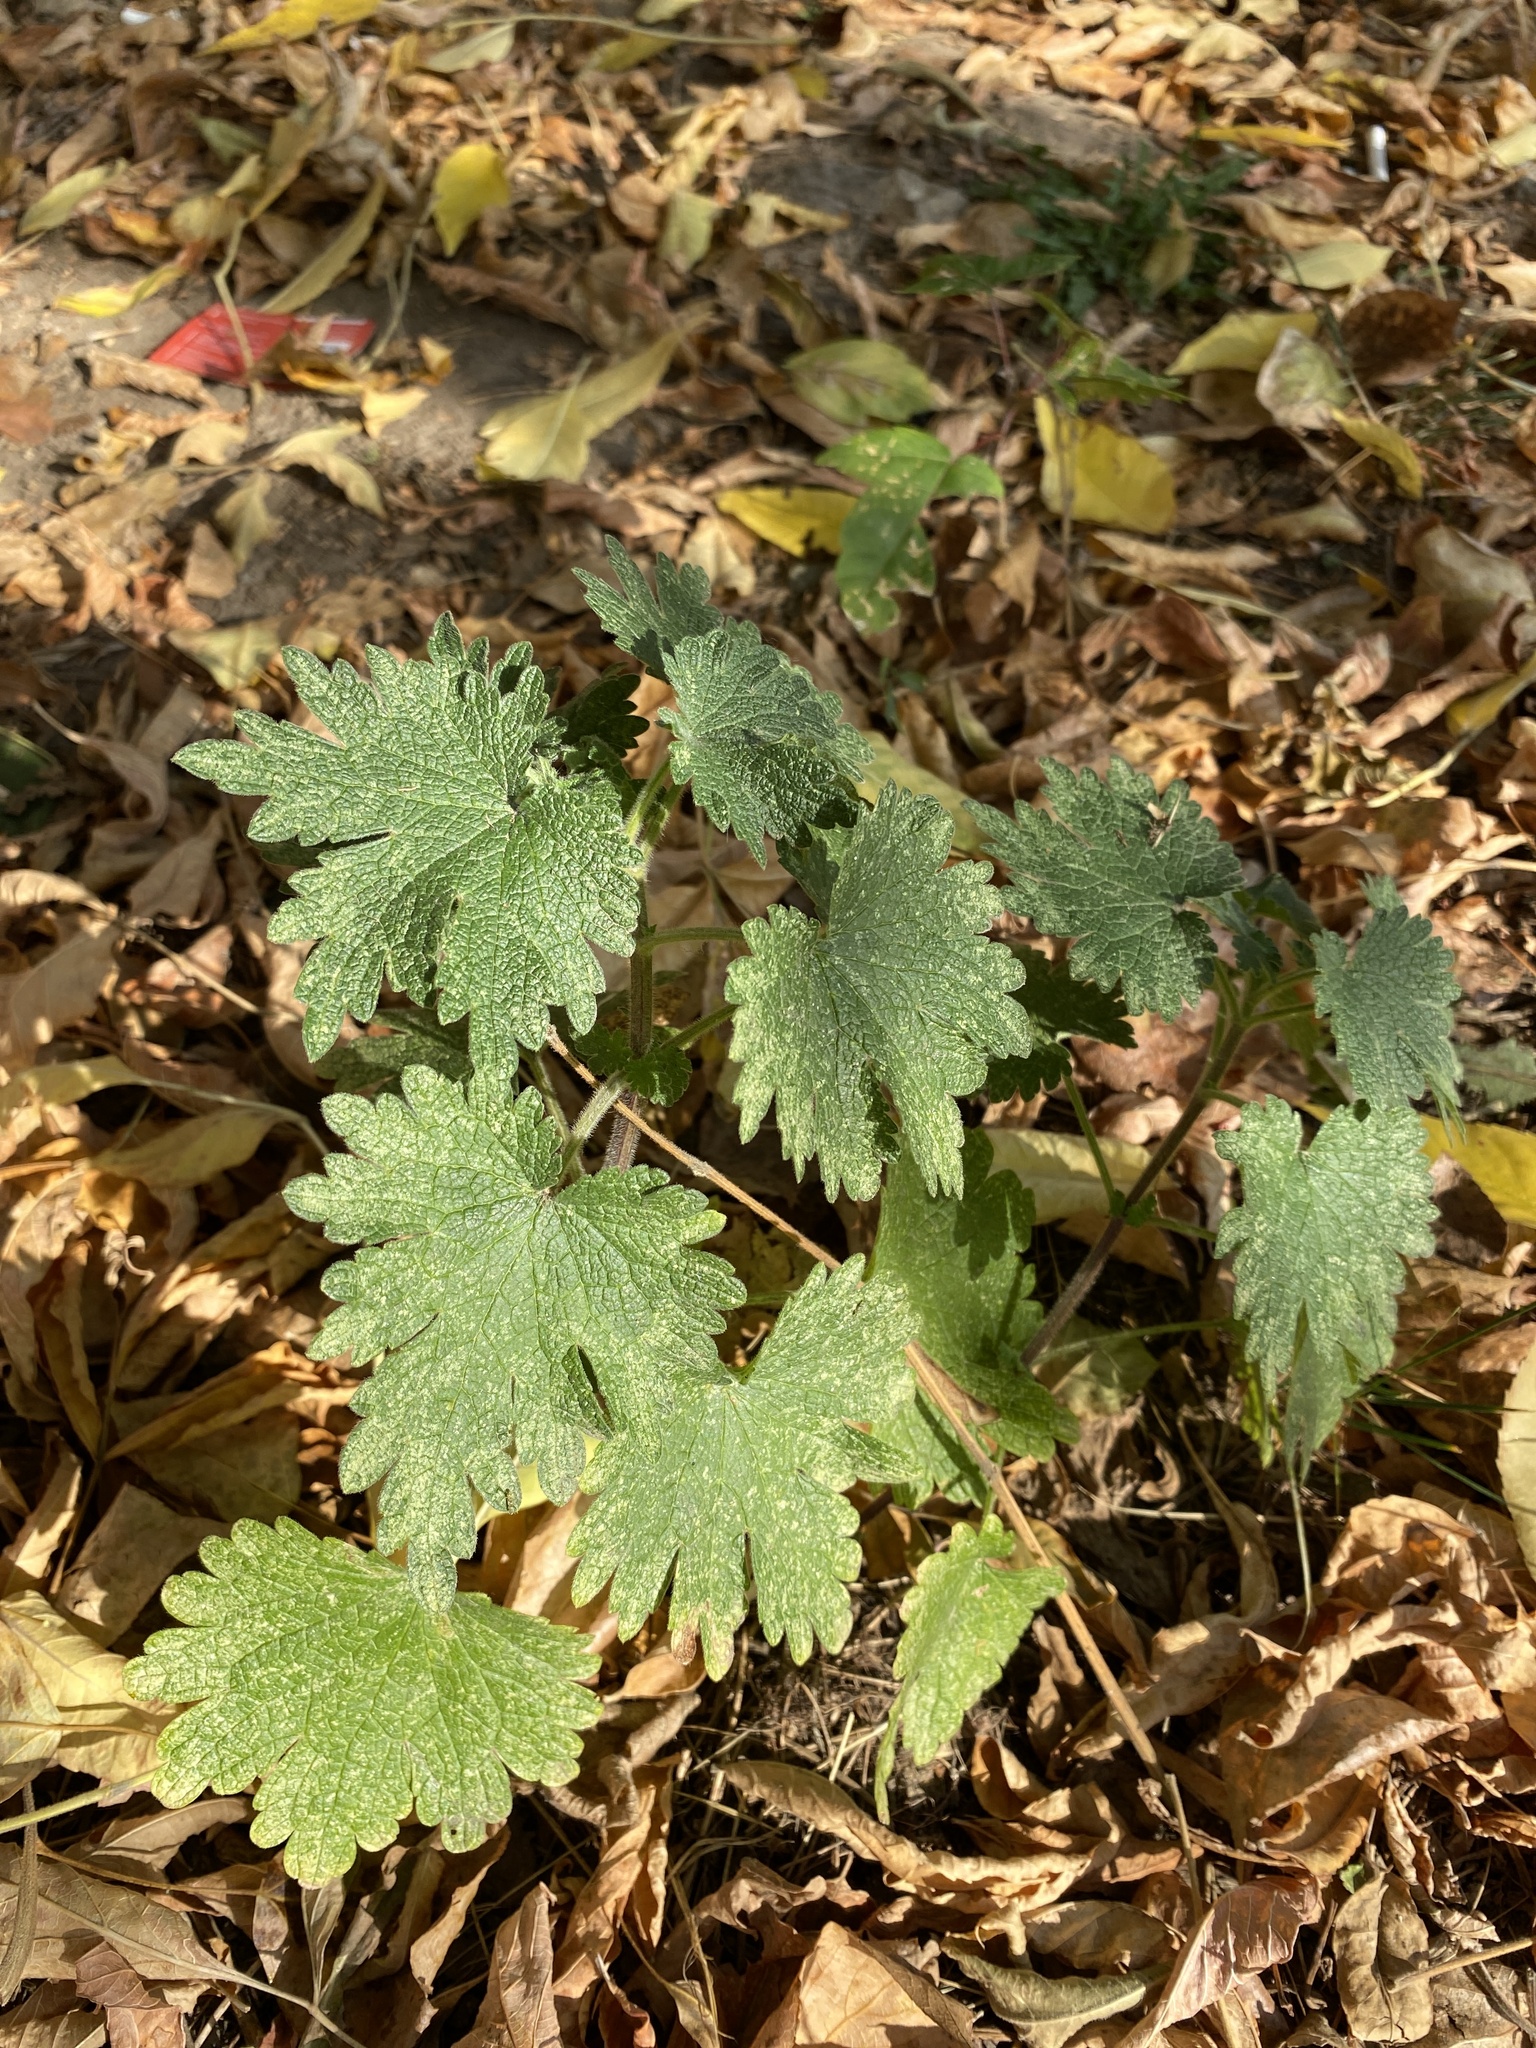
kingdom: Plantae
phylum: Tracheophyta
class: Magnoliopsida
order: Lamiales
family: Lamiaceae
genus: Leonurus
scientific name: Leonurus quinquelobatus
